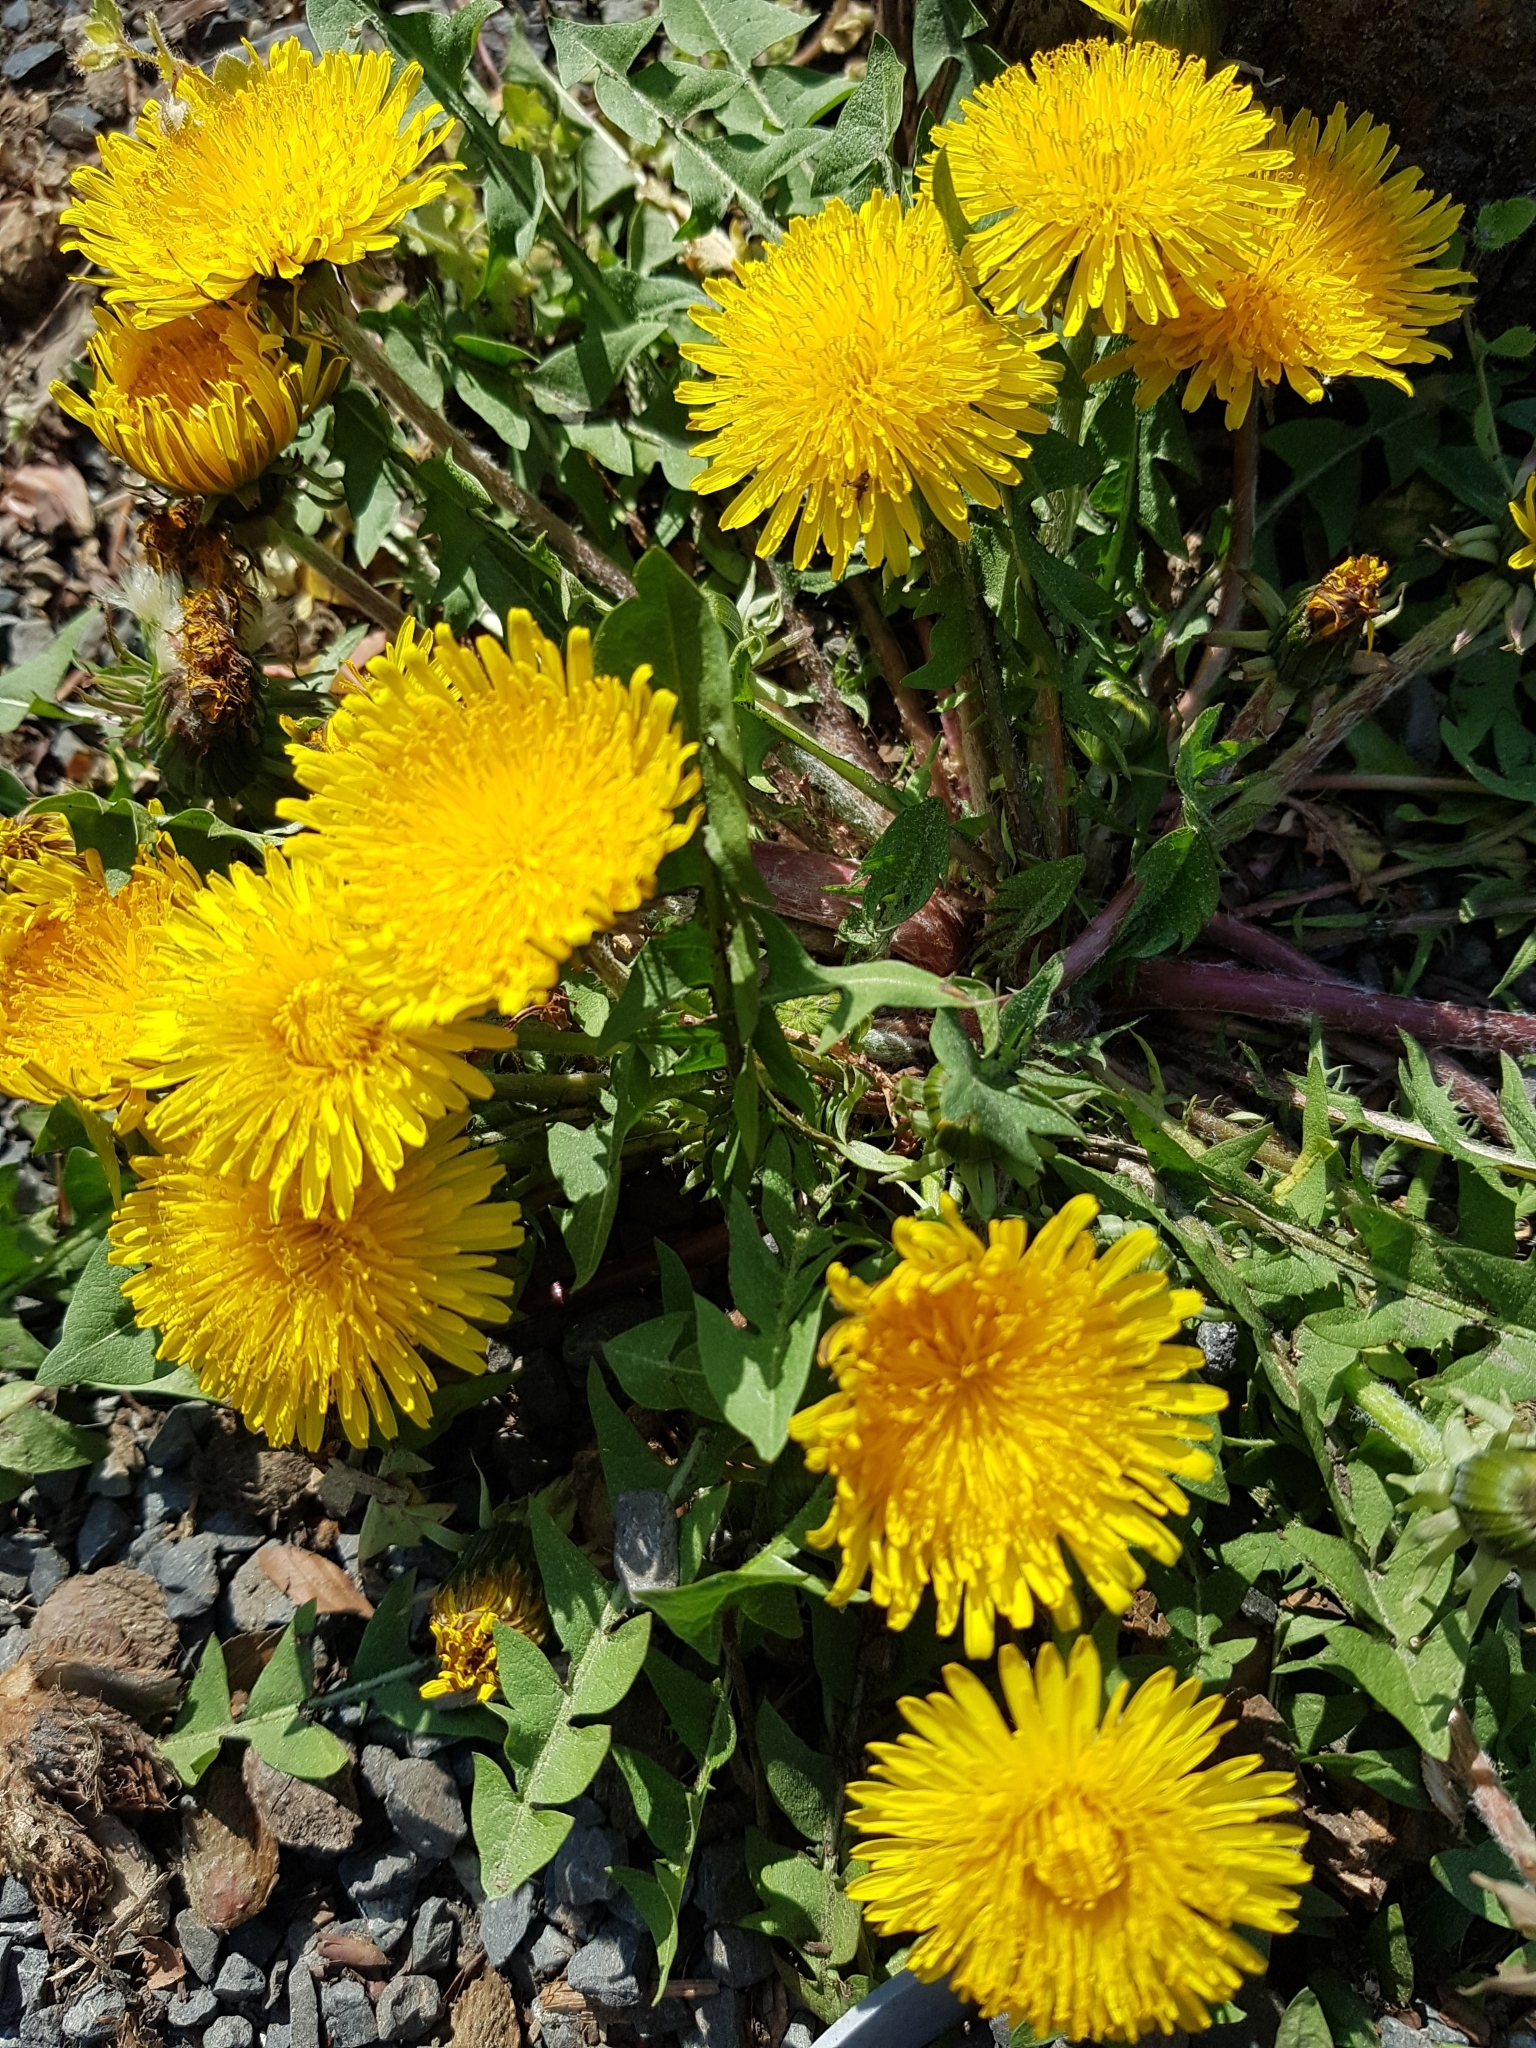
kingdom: Plantae
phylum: Tracheophyta
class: Magnoliopsida
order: Asterales
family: Asteraceae
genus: Taraxacum
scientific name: Taraxacum officinale
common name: Common dandelion
